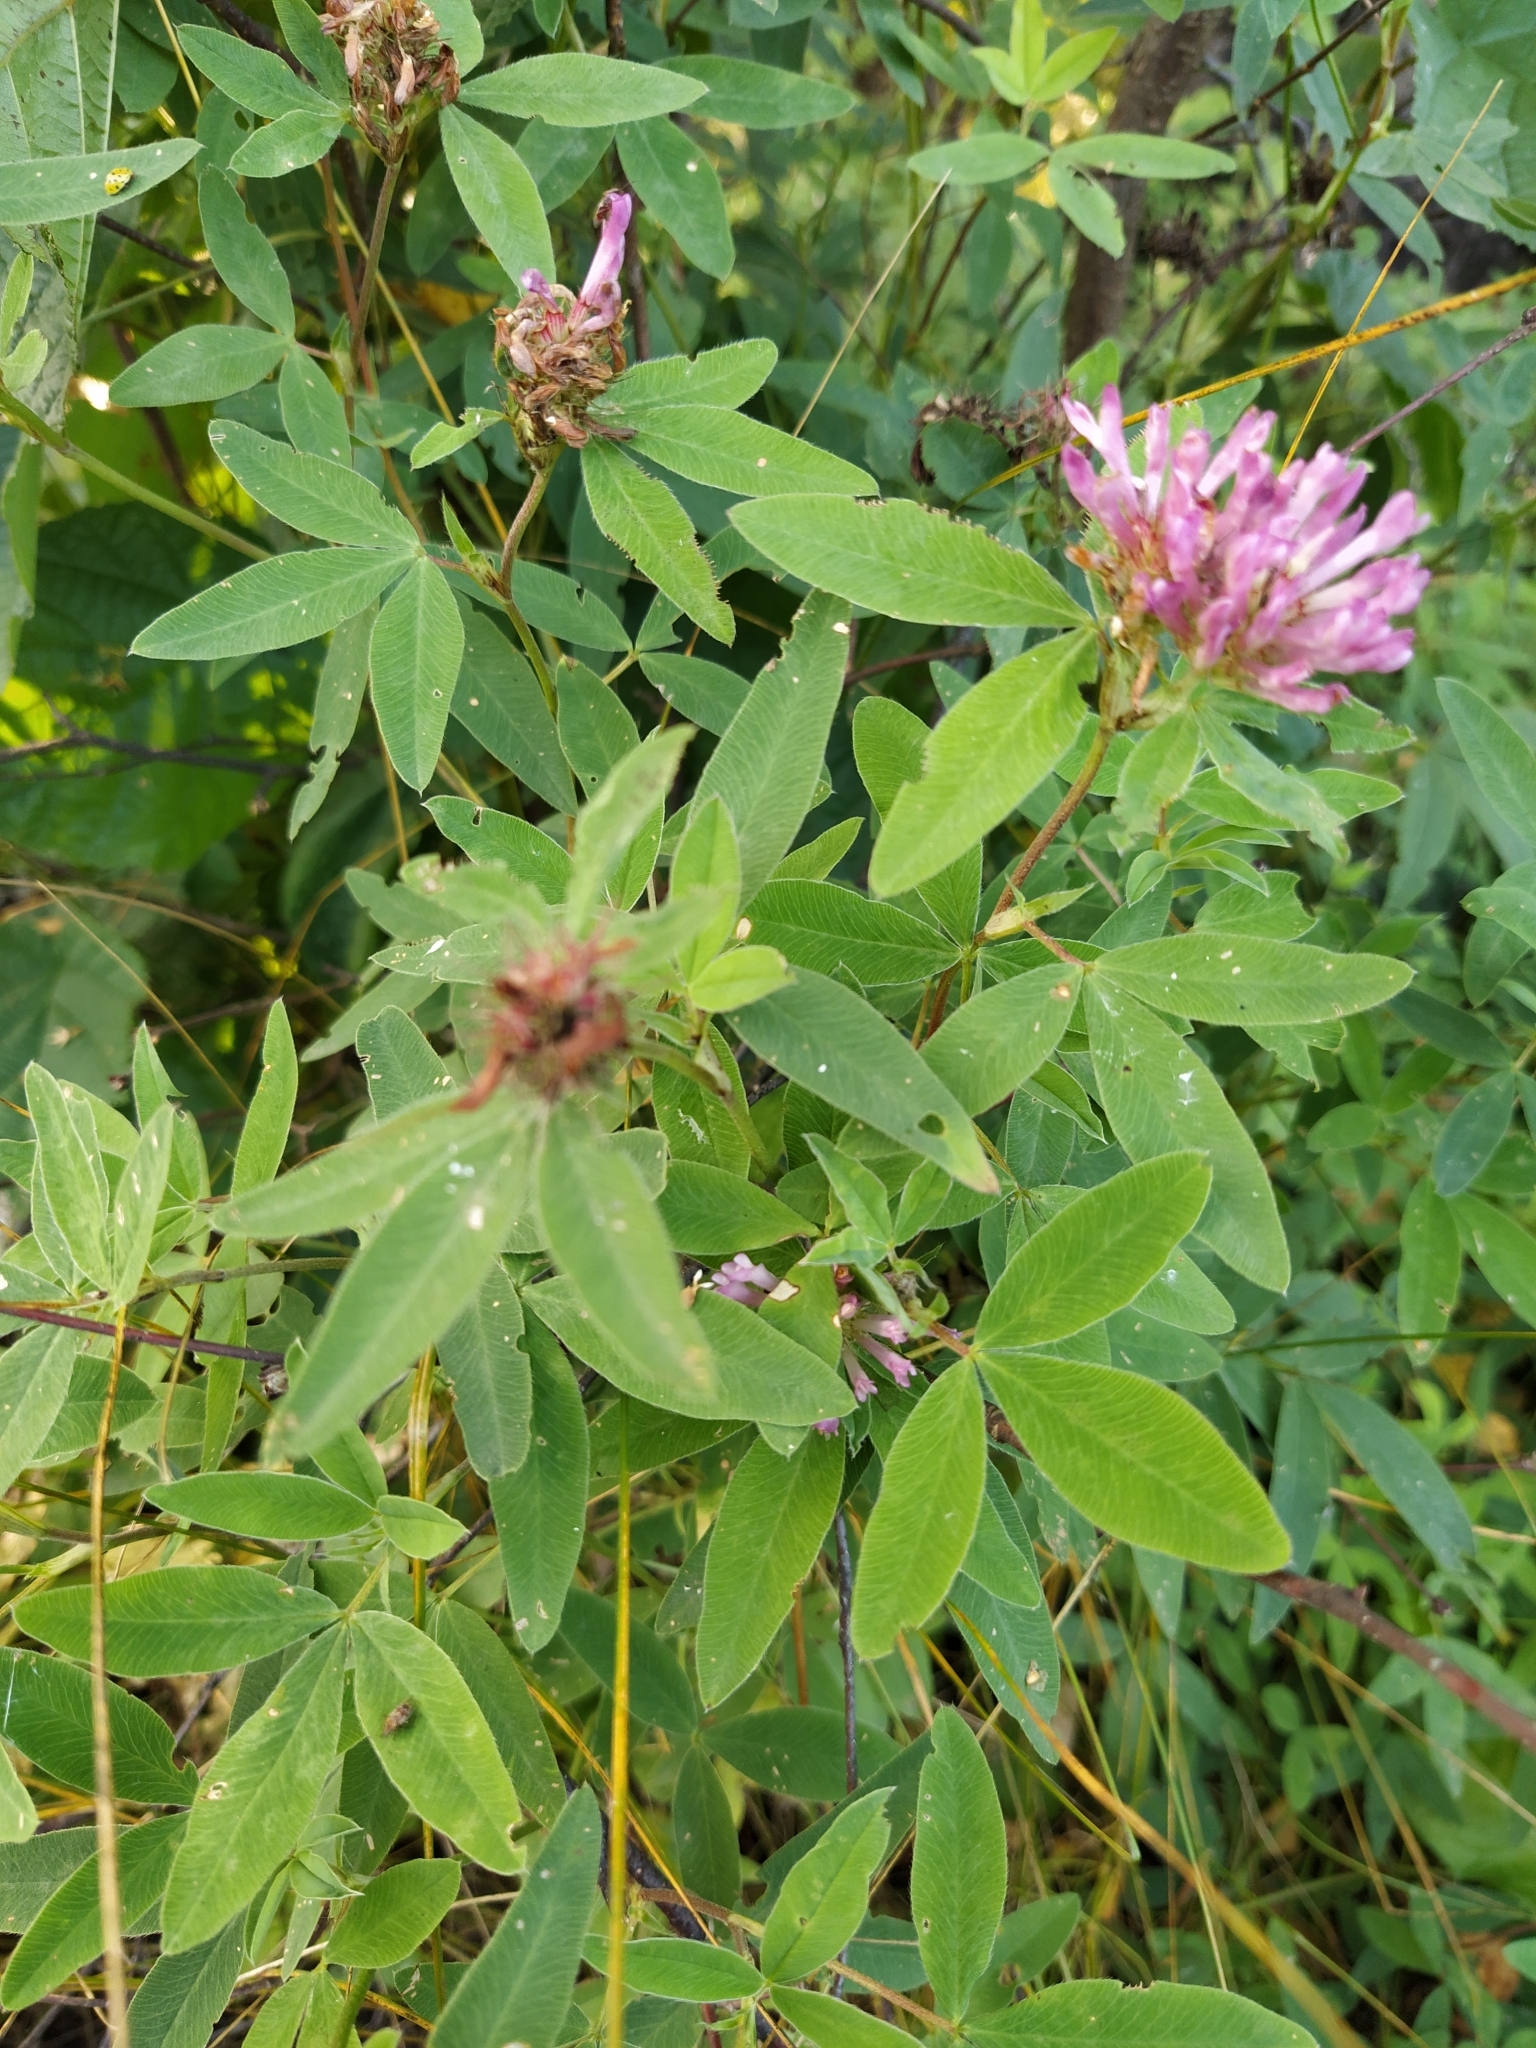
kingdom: Plantae
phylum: Tracheophyta
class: Magnoliopsida
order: Fabales
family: Fabaceae
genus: Trifolium
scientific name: Trifolium medium
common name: Zigzag clover
